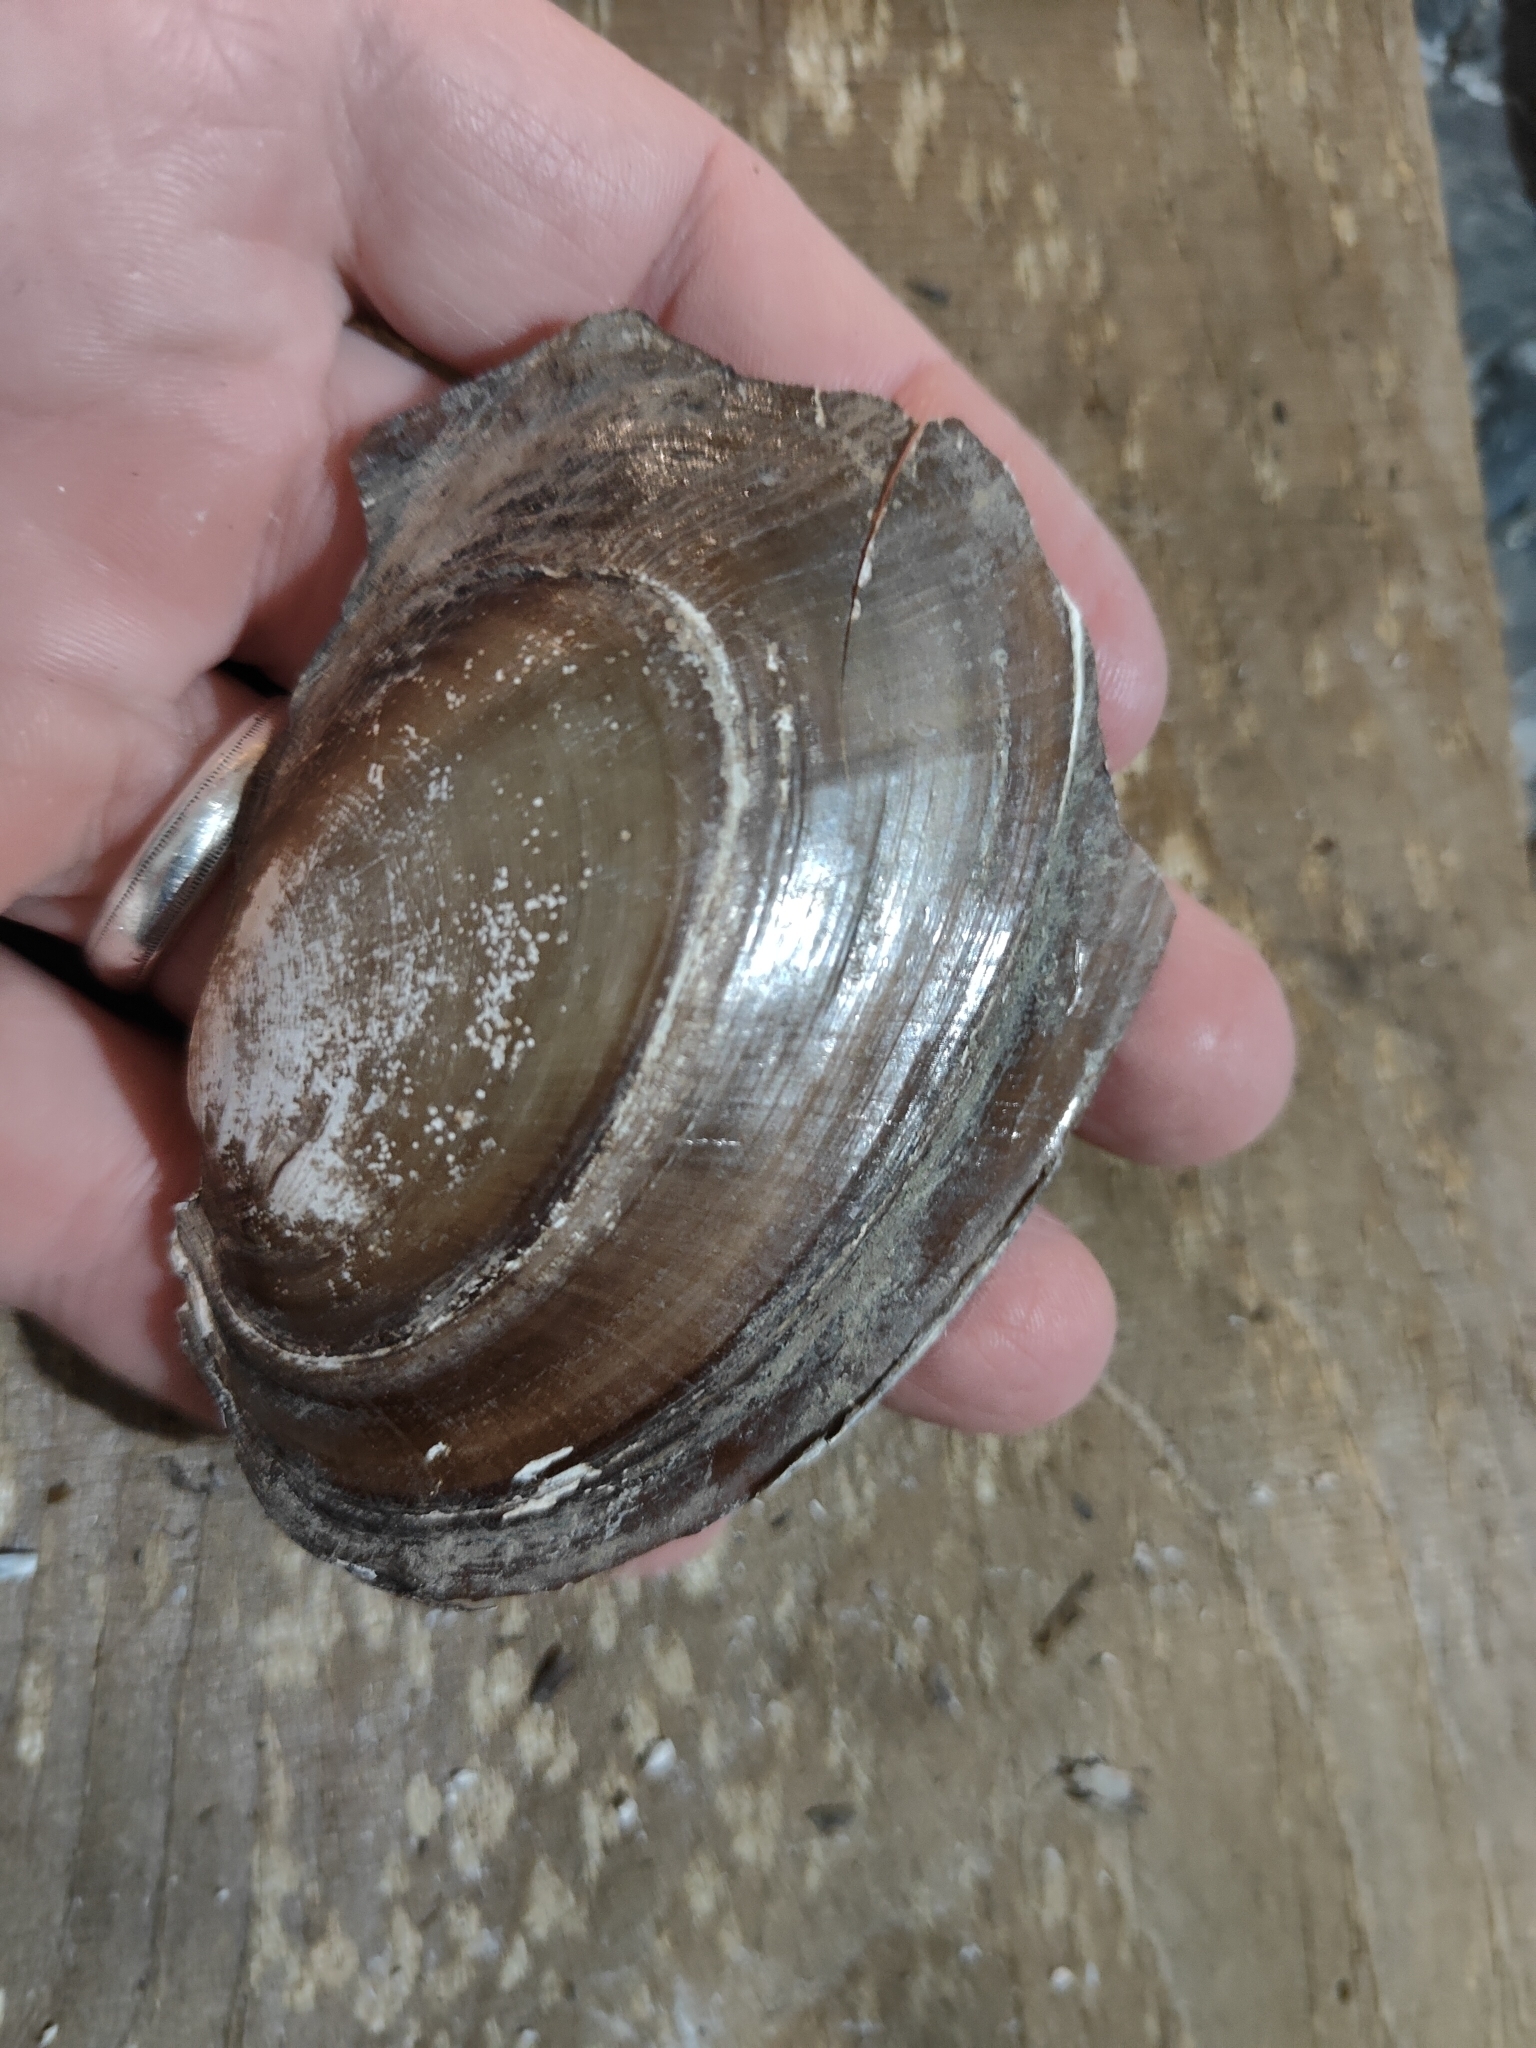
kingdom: Animalia
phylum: Mollusca
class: Bivalvia
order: Unionida
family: Unionidae
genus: Potamilus
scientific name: Potamilus ohiensis
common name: Pink papershell
